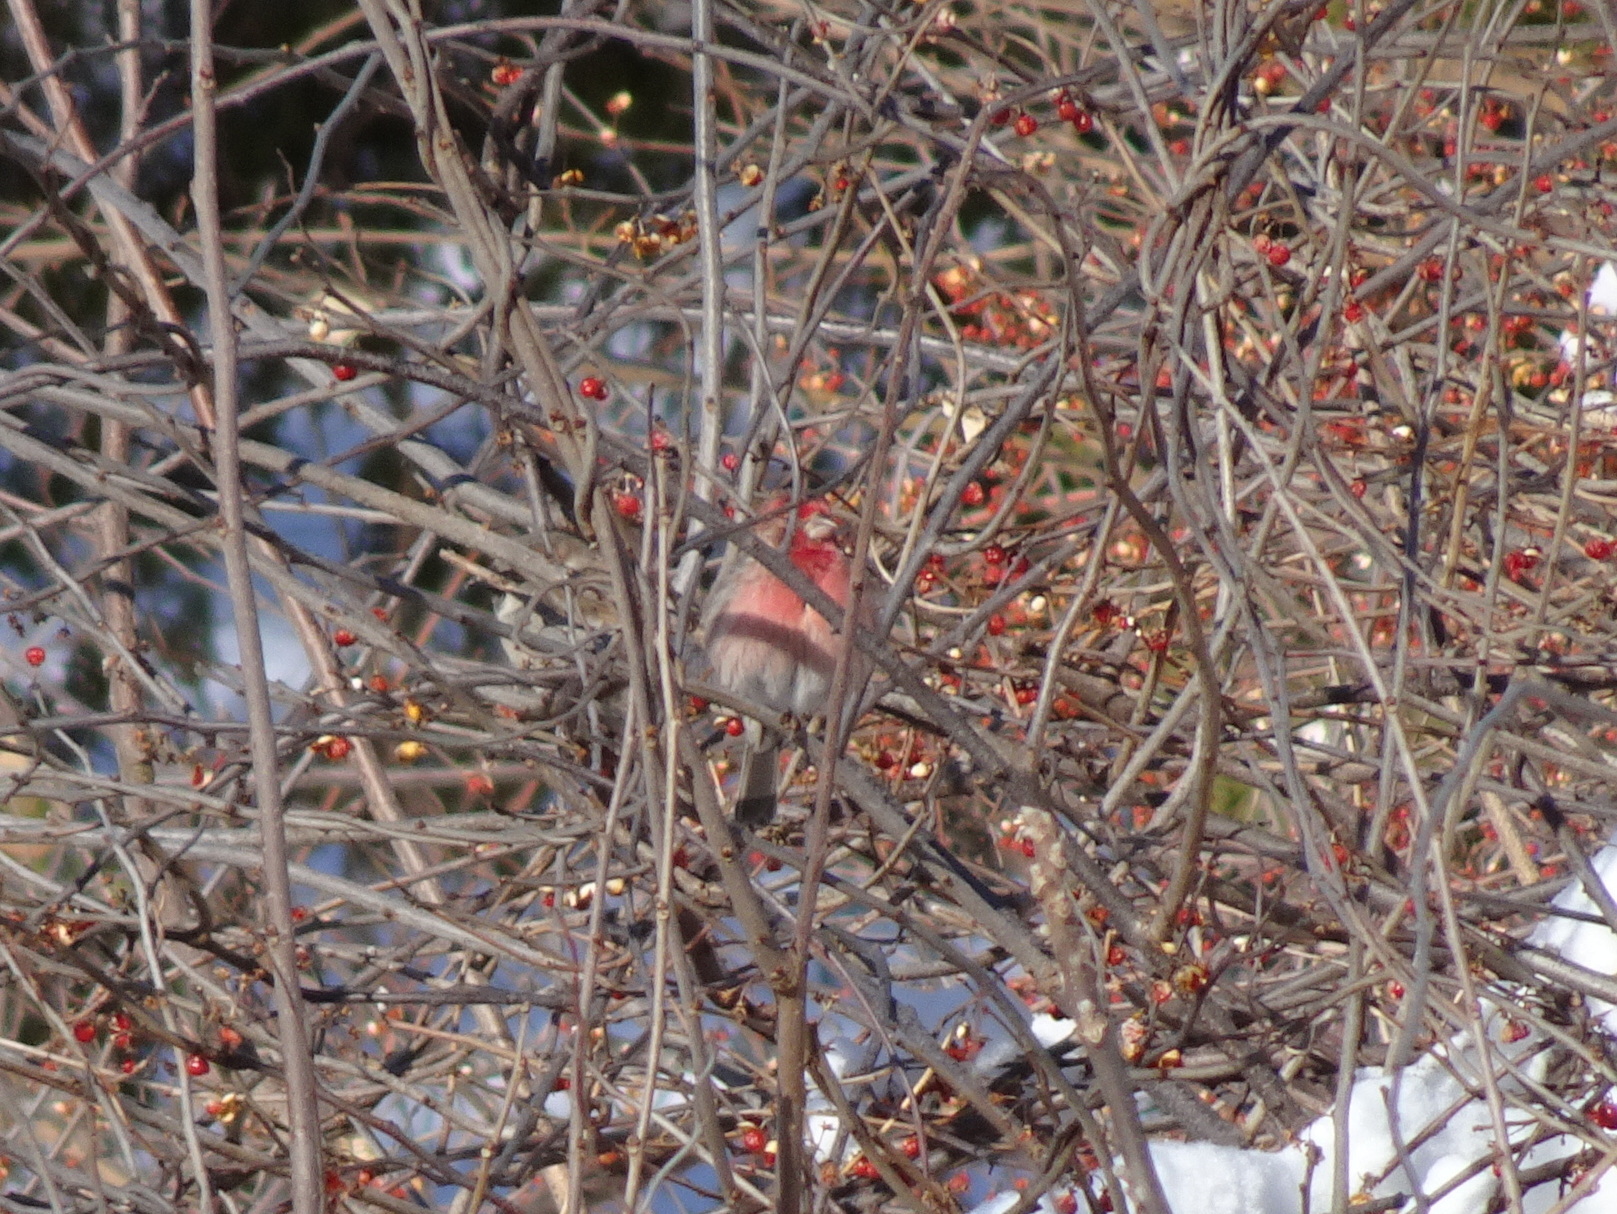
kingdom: Animalia
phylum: Chordata
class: Aves
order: Passeriformes
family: Fringillidae
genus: Haemorhous
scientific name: Haemorhous mexicanus
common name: House finch
